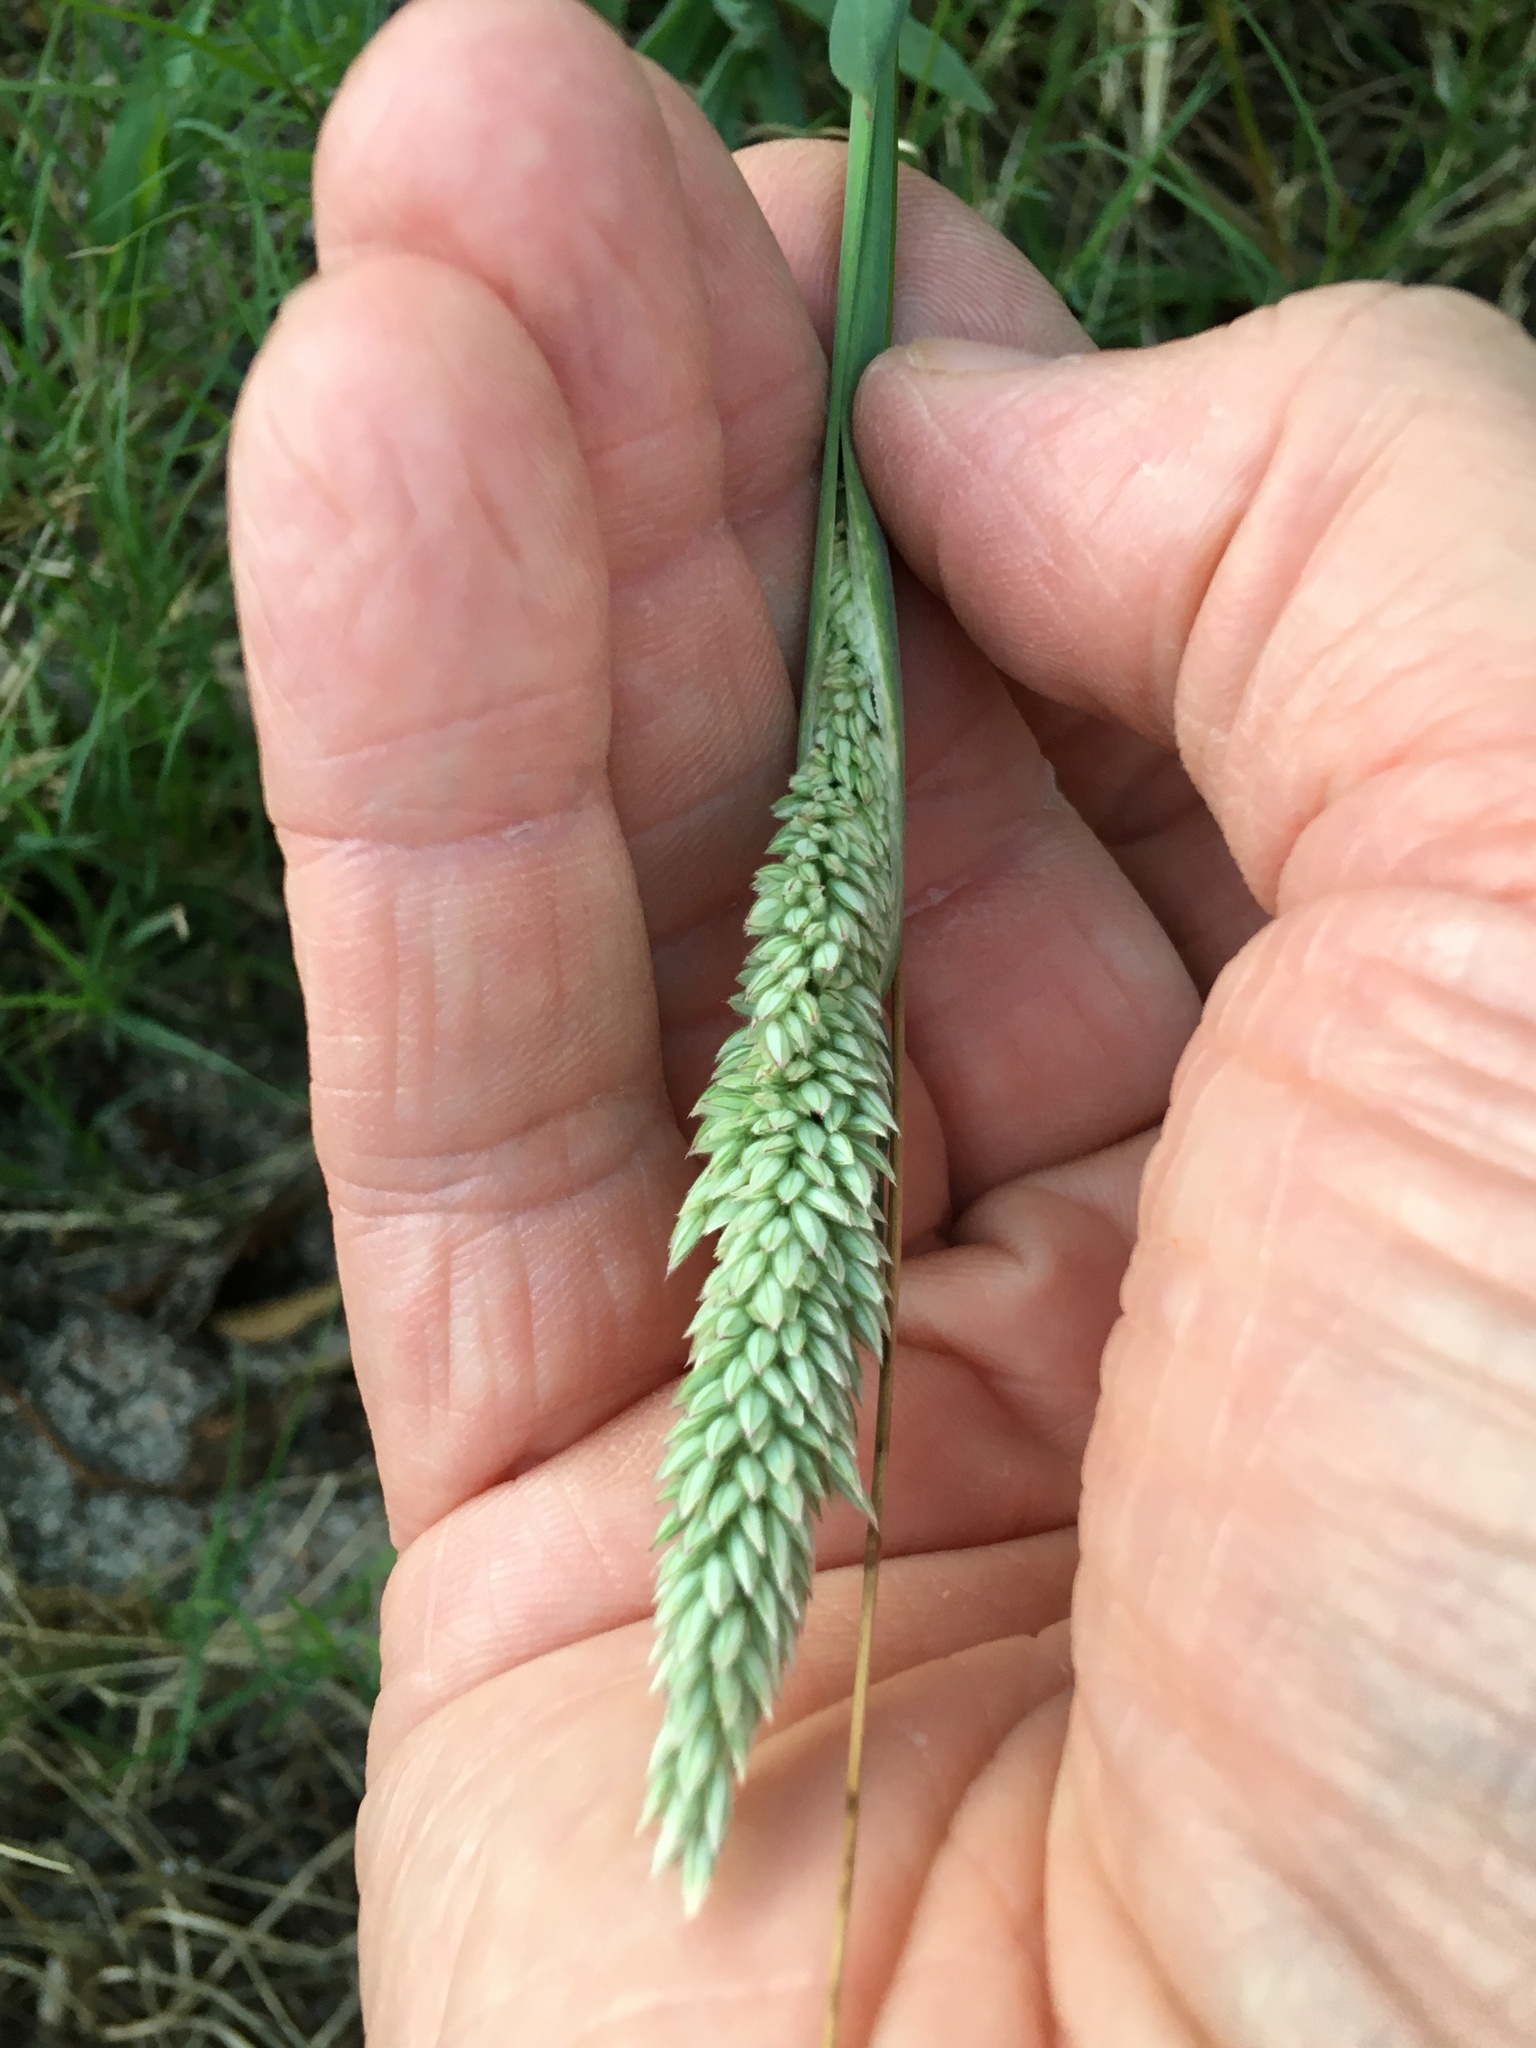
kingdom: Plantae
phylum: Tracheophyta
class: Liliopsida
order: Poales
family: Poaceae
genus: Holcus
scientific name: Holcus lanatus
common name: Yorkshire-fog
